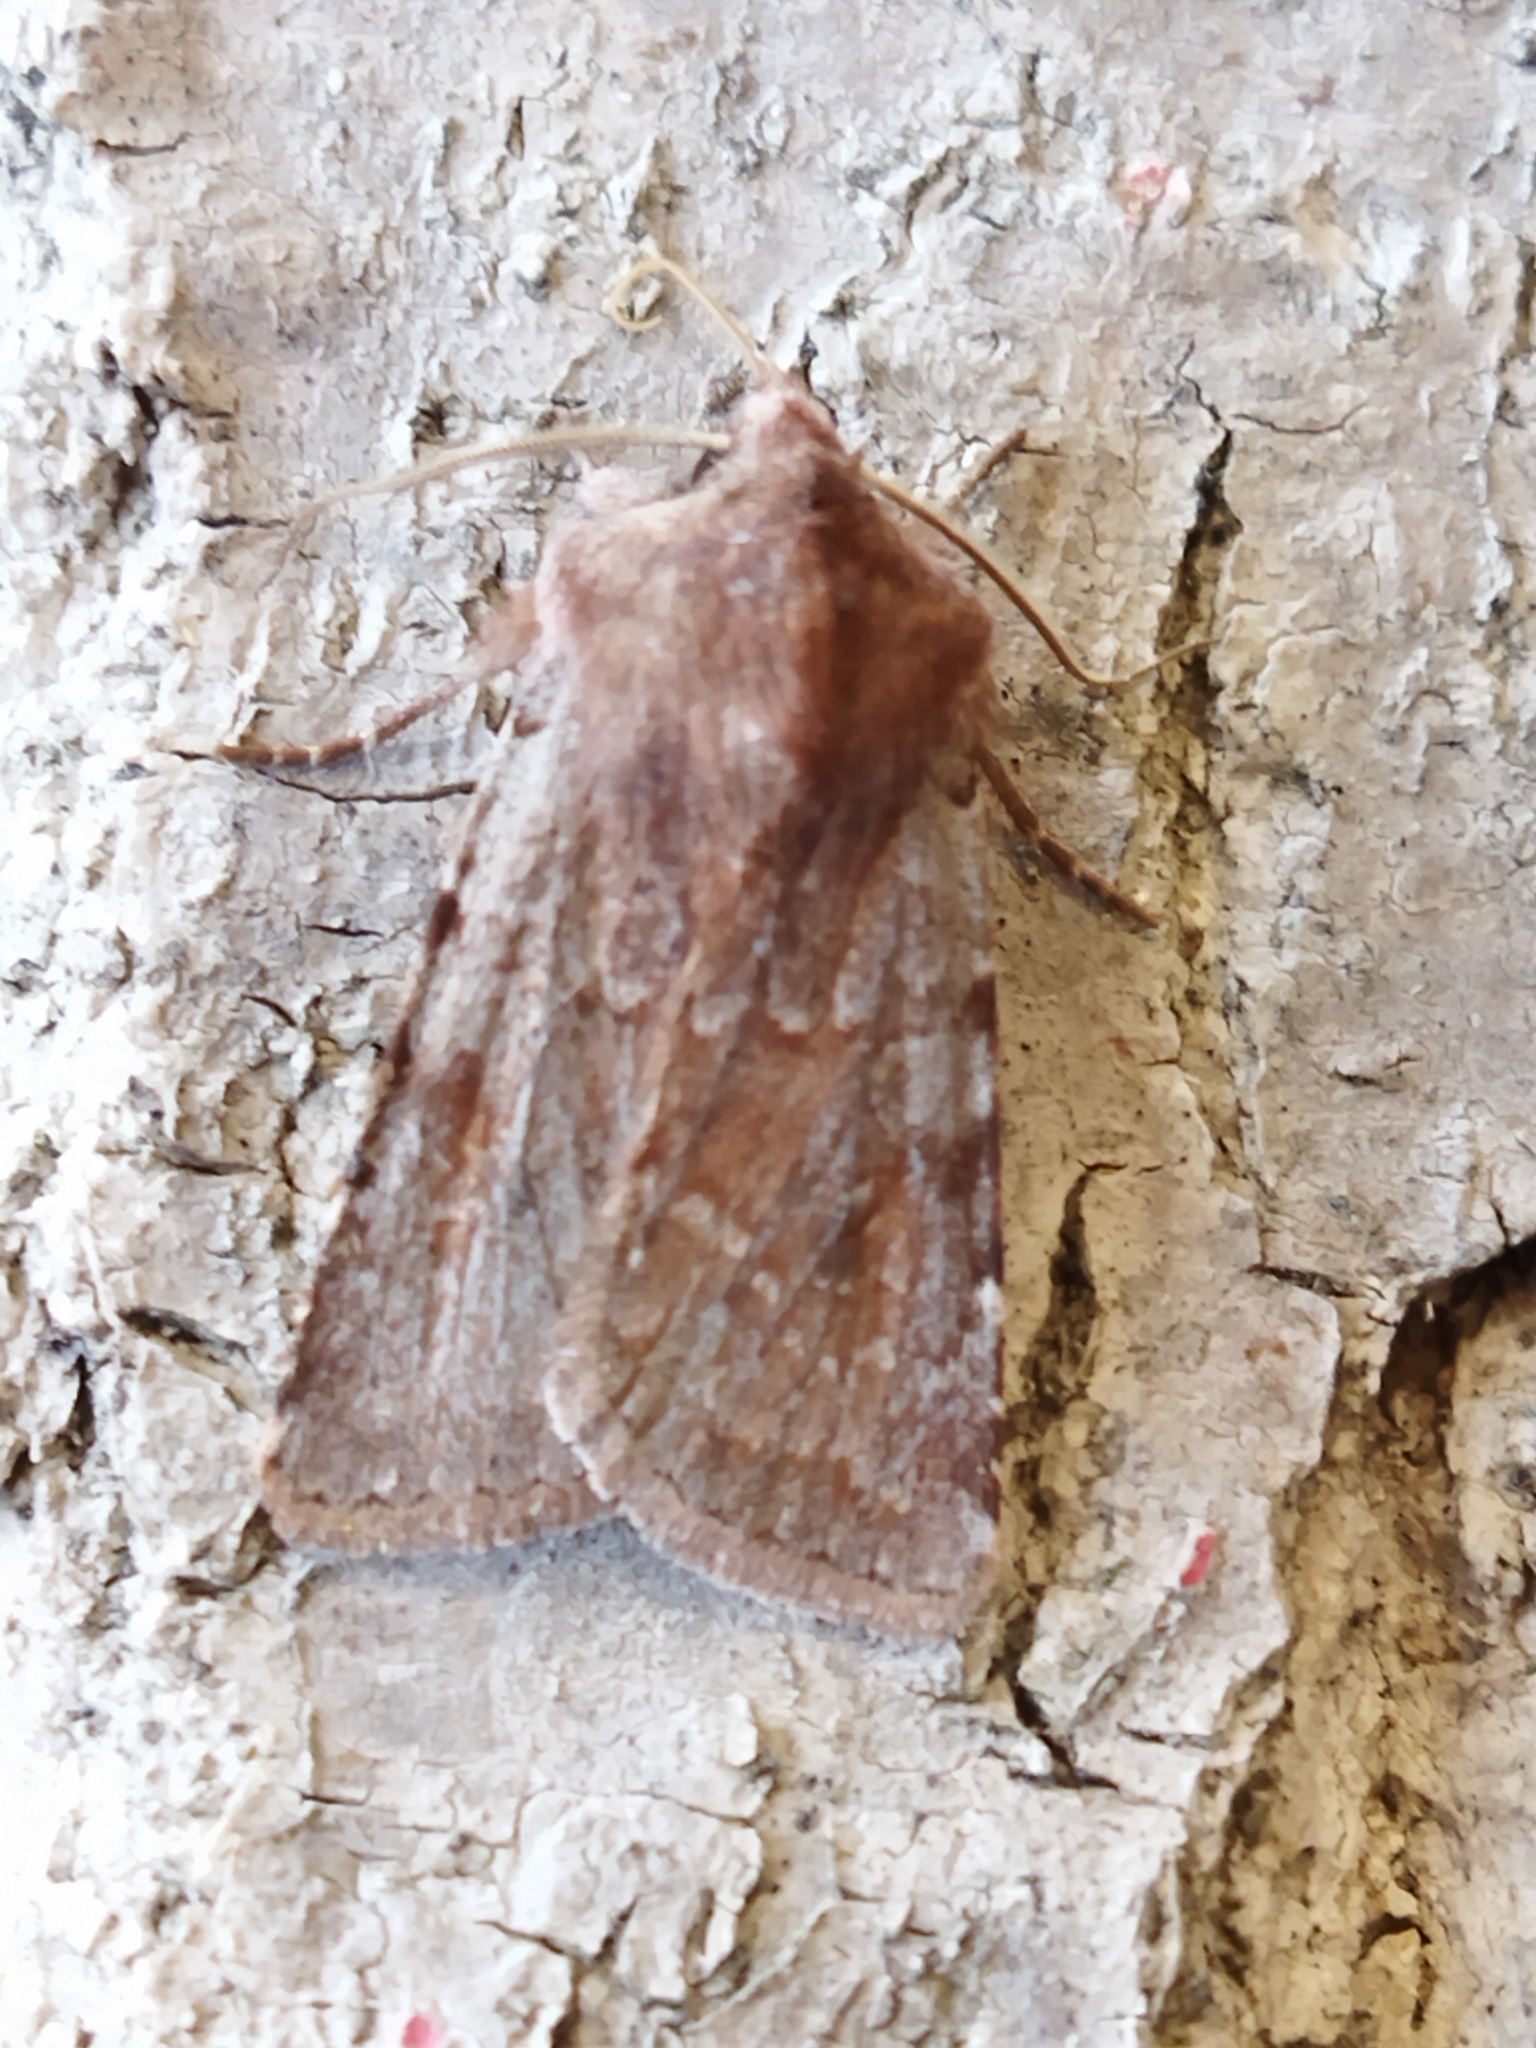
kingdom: Animalia
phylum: Arthropoda
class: Insecta
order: Lepidoptera
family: Noctuidae
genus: Cerastis
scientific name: Cerastis rubricosa
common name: Red chestnut
